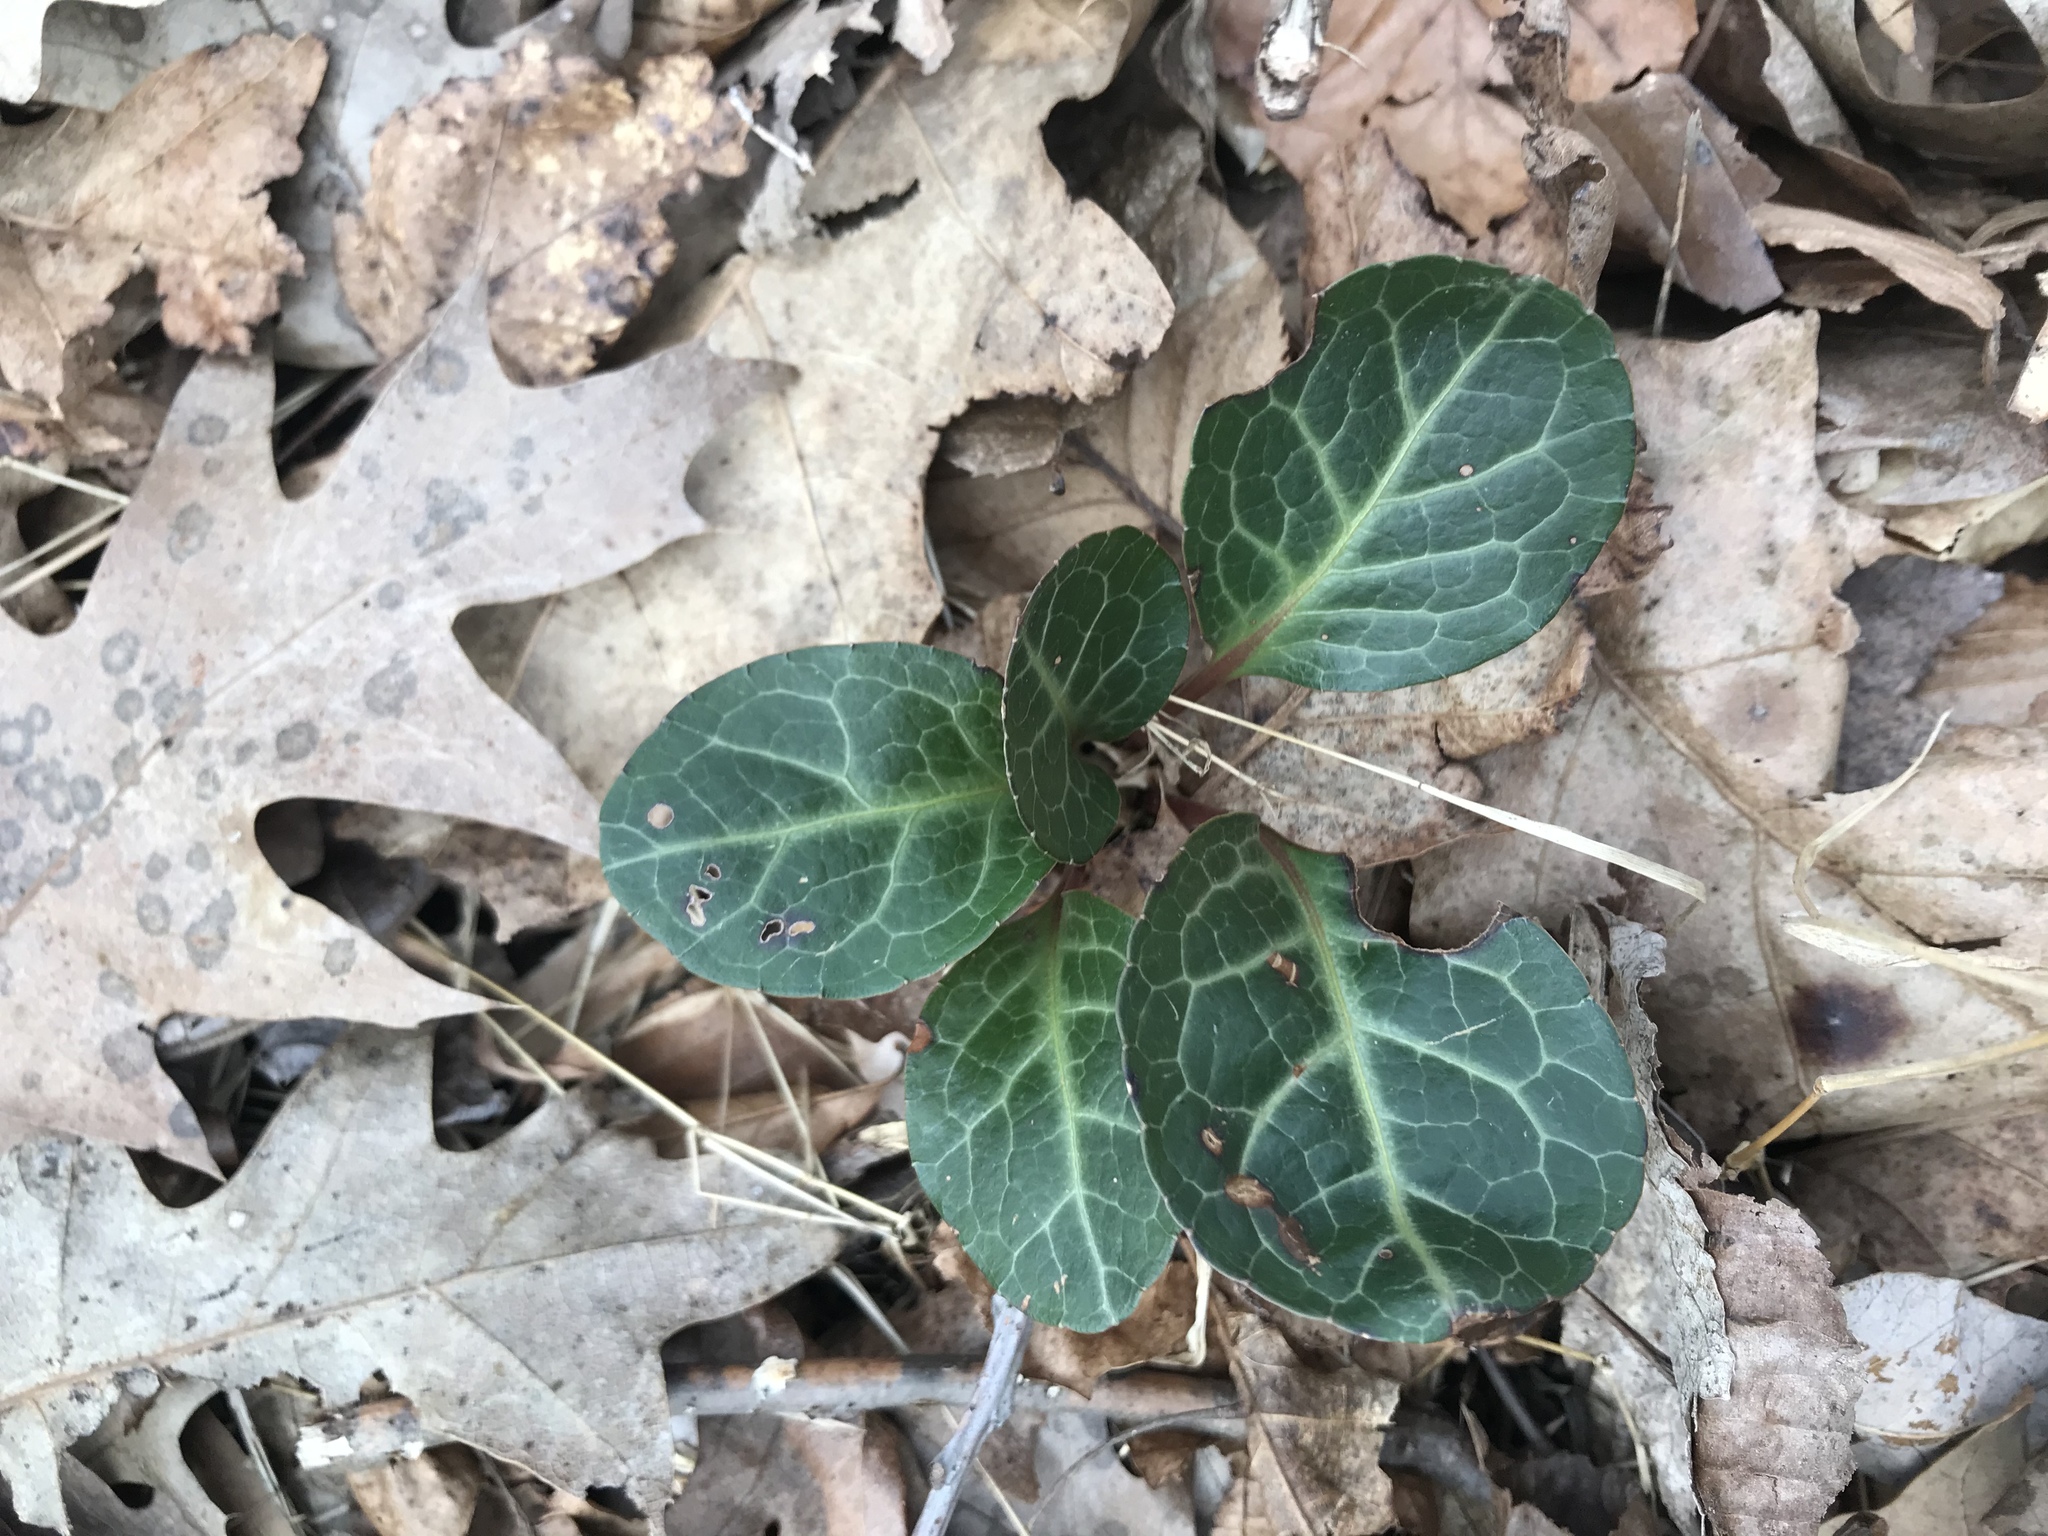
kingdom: Plantae
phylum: Tracheophyta
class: Magnoliopsida
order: Ericales
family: Ericaceae
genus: Pyrola
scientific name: Pyrola americana
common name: American wintergreen
